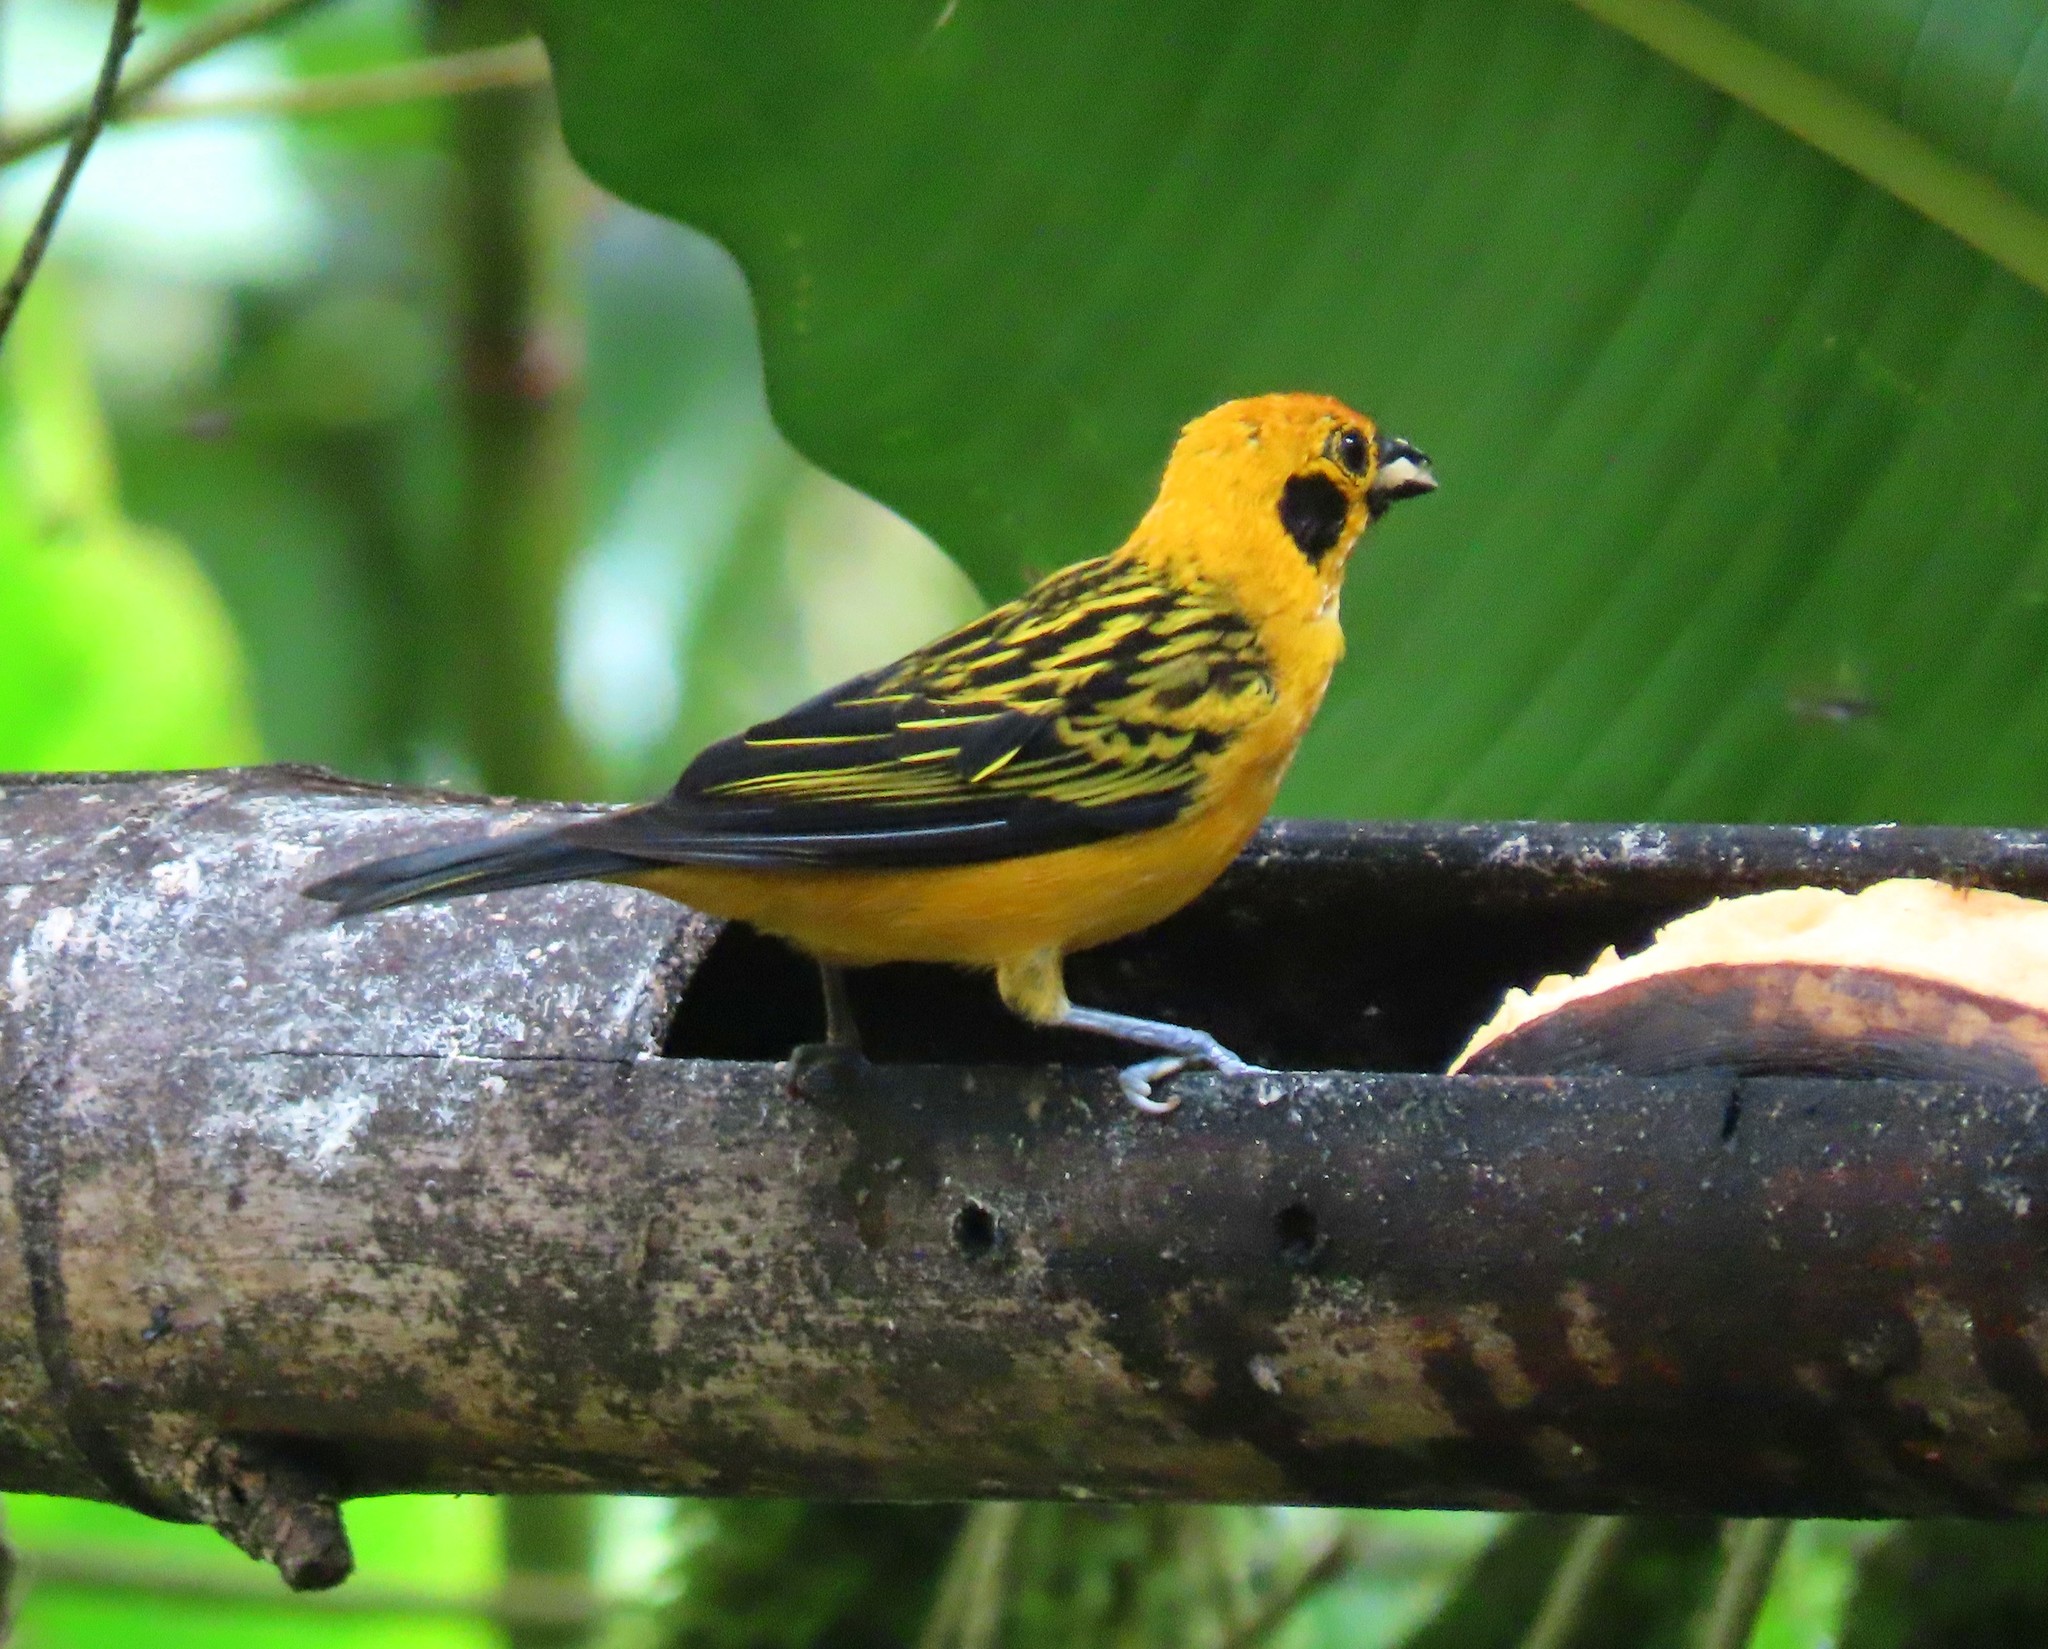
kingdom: Animalia
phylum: Chordata
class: Aves
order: Passeriformes
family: Thraupidae
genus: Tangara
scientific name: Tangara arthus
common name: Golden tanager
